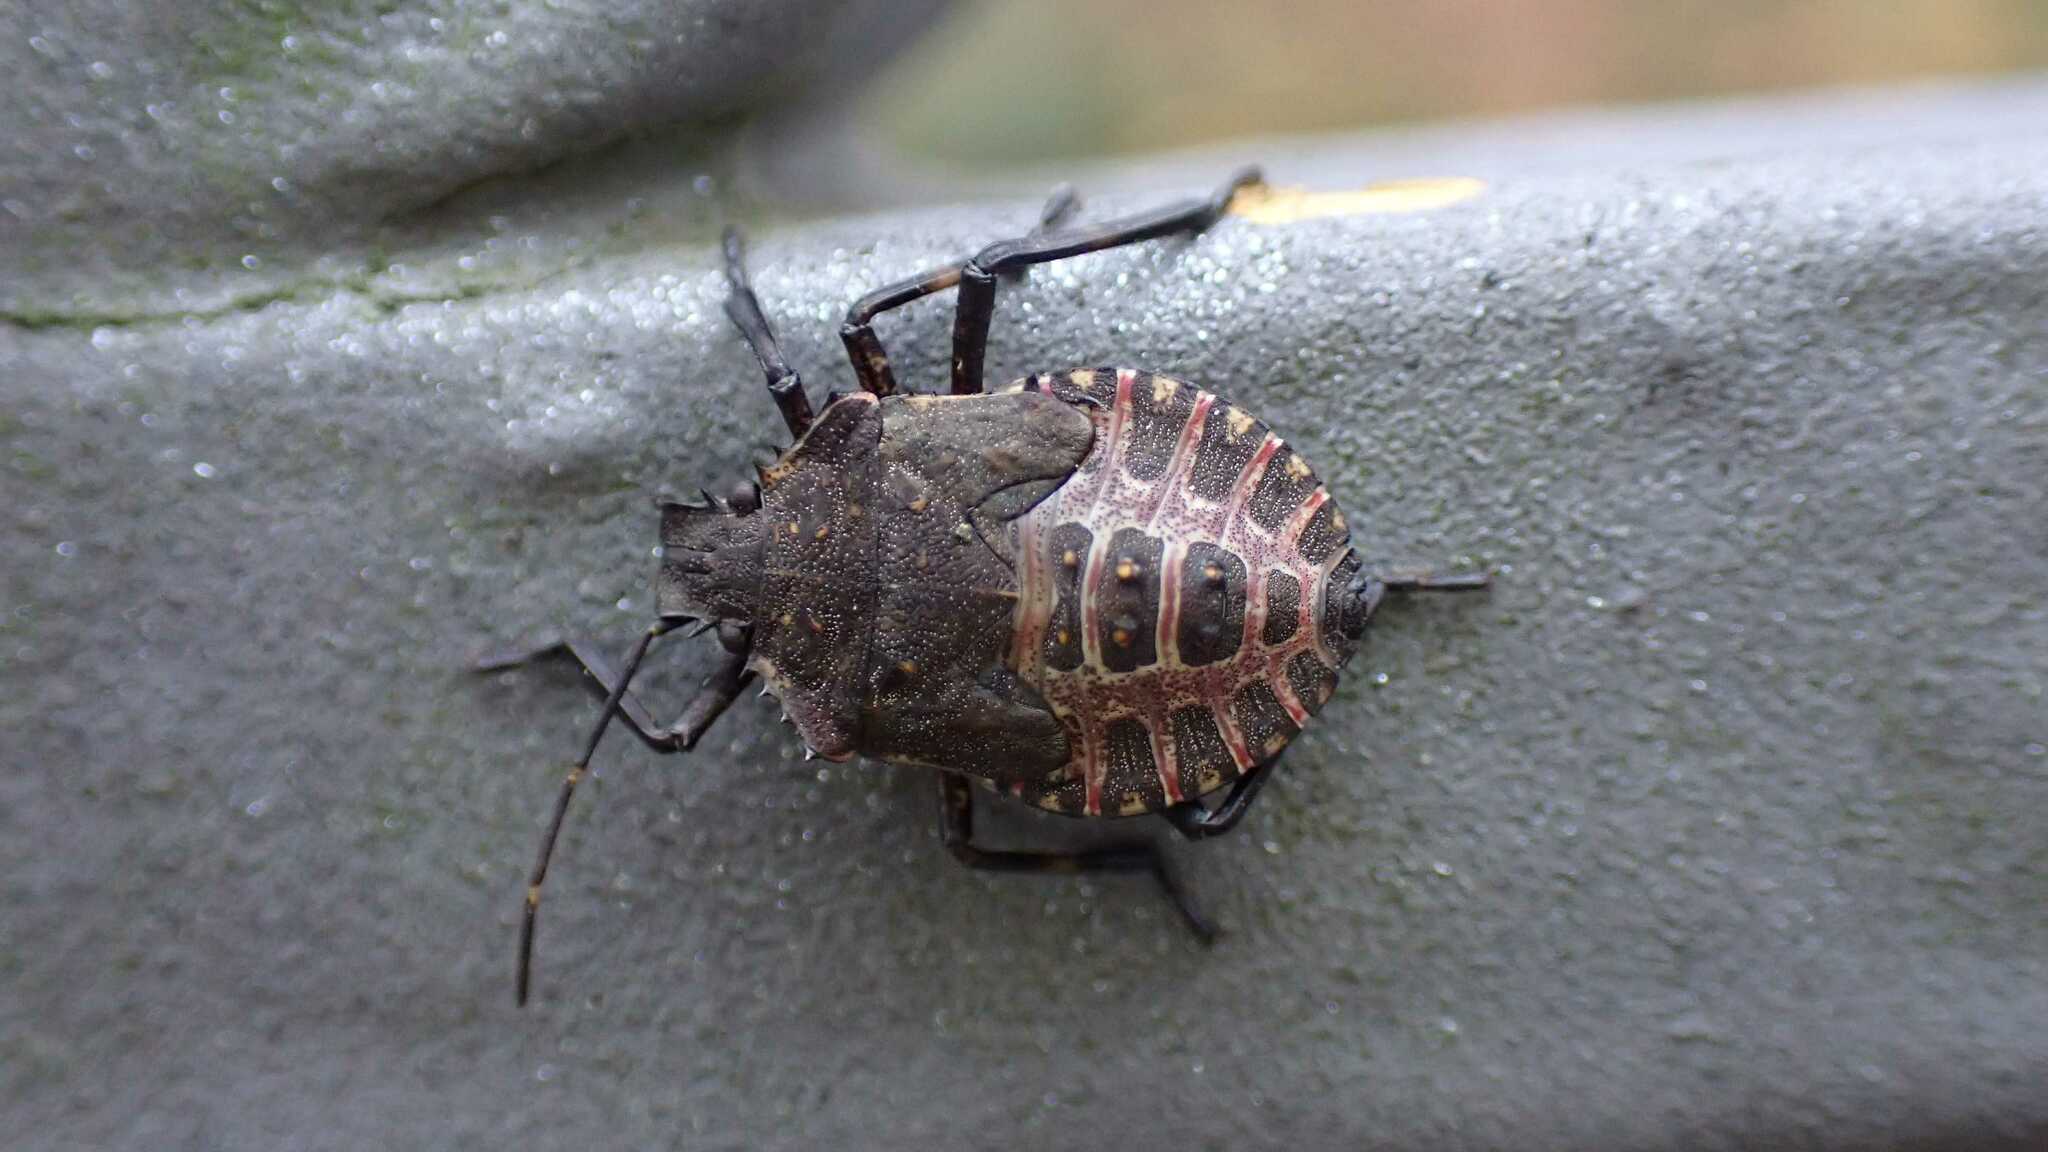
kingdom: Animalia
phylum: Arthropoda
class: Insecta
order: Hemiptera
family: Pentatomidae
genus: Halyomorpha
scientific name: Halyomorpha halys
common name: Brown marmorated stink bug
